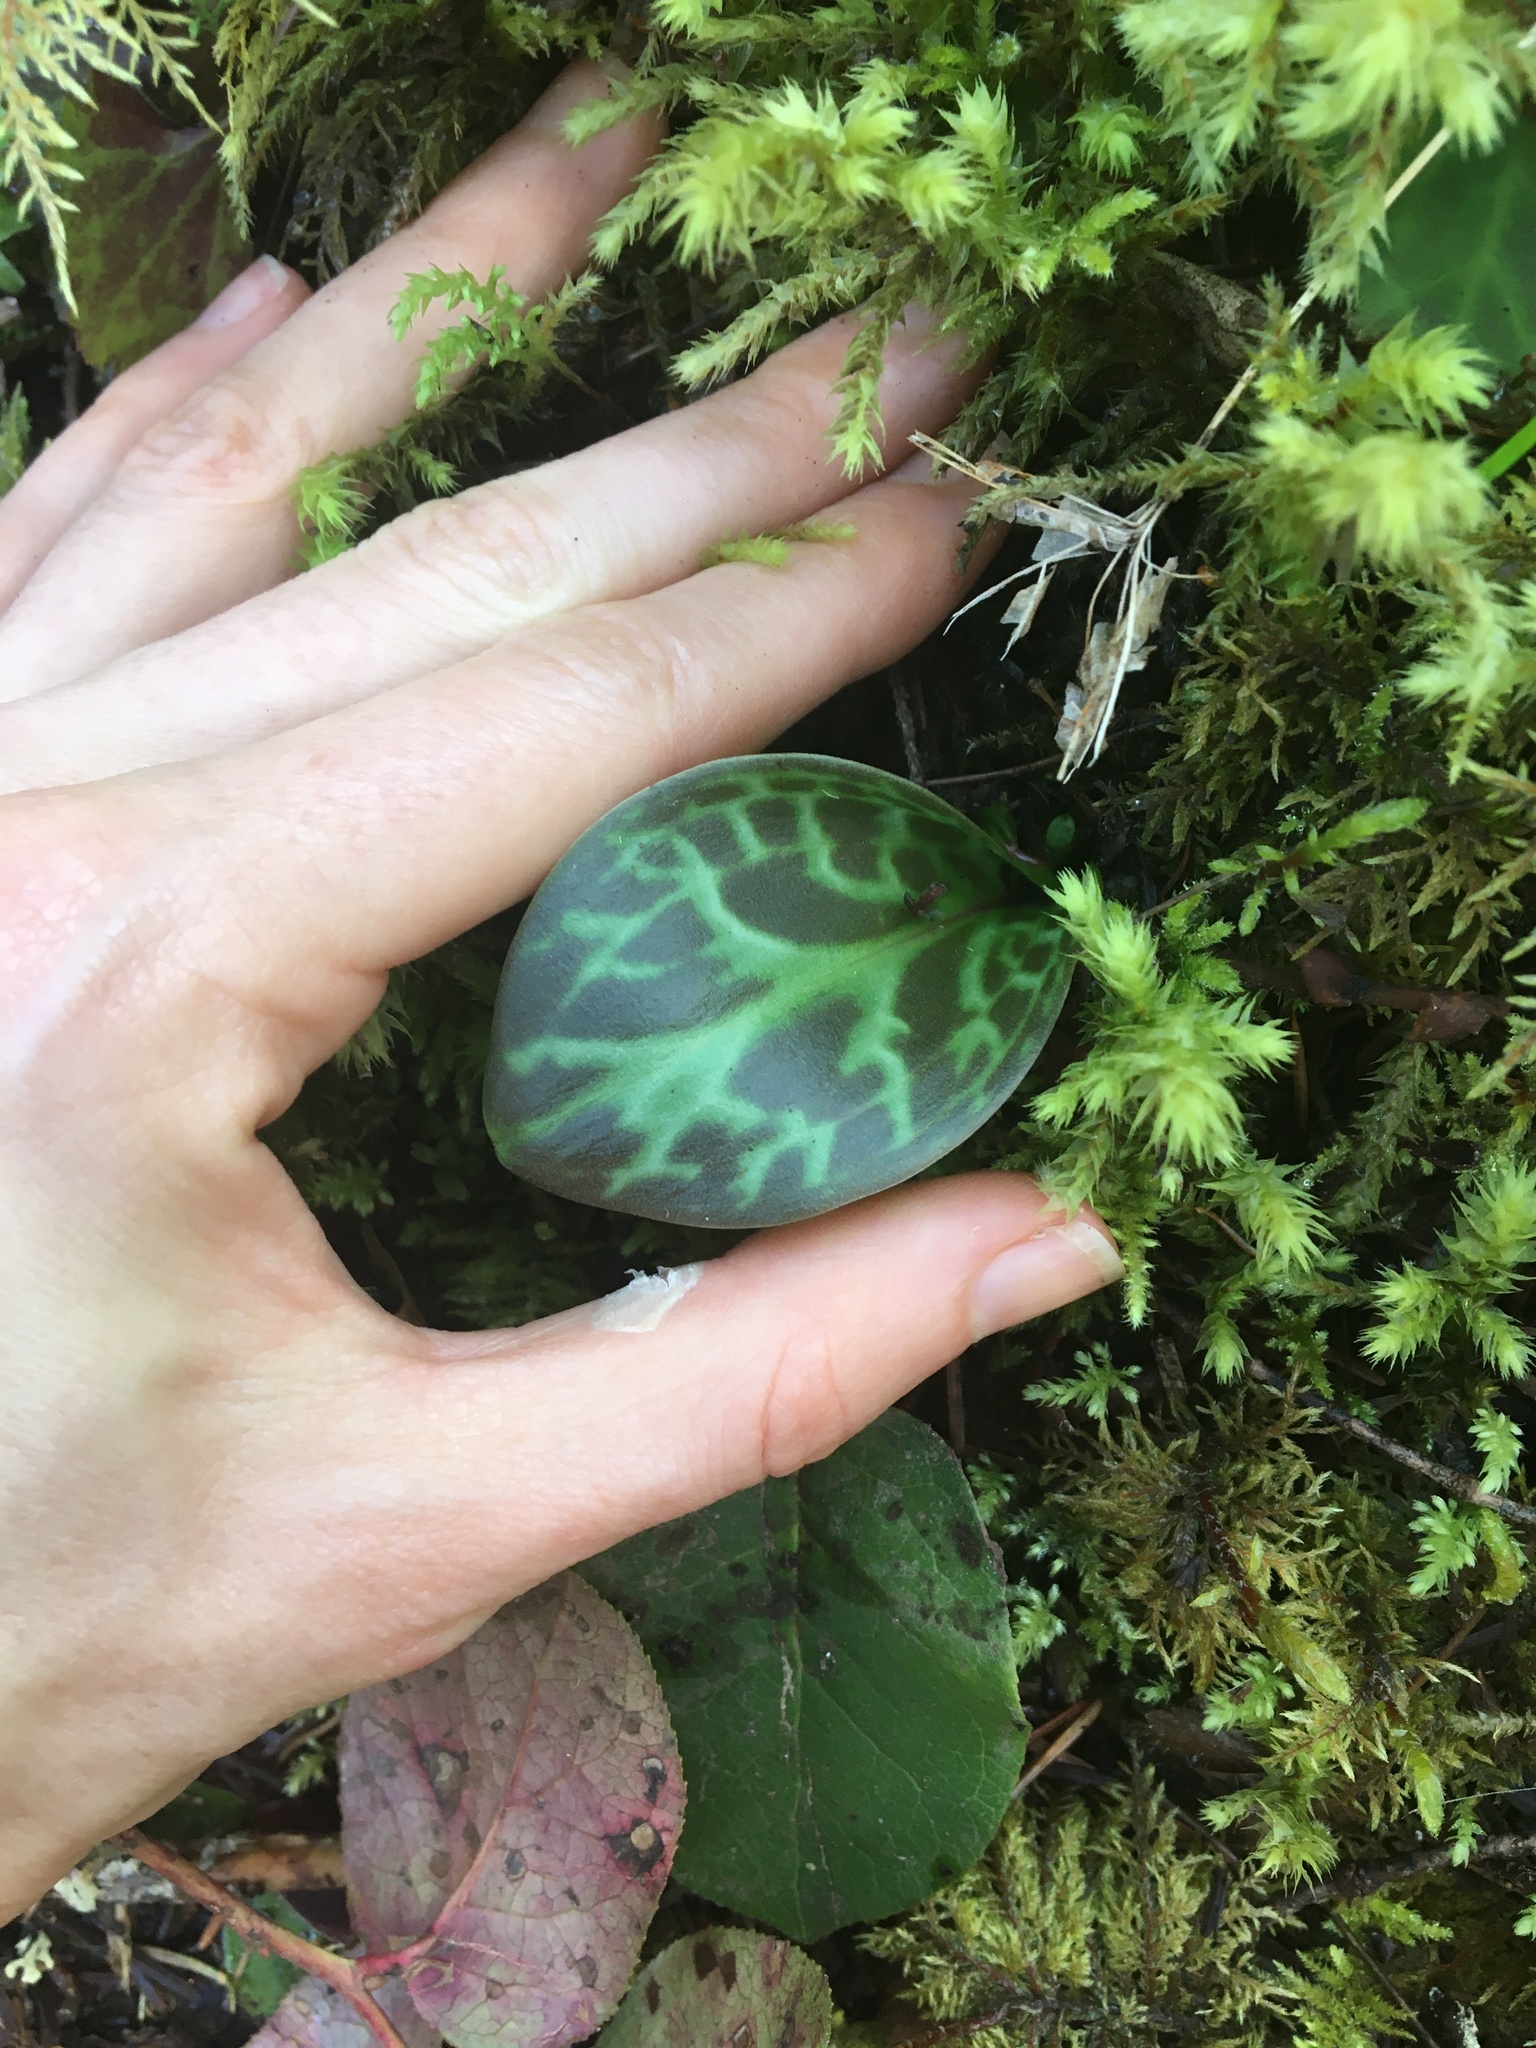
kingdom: Plantae
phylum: Tracheophyta
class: Liliopsida
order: Liliales
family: Liliaceae
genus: Erythronium
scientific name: Erythronium oregonum
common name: Giant adder's-tongue
